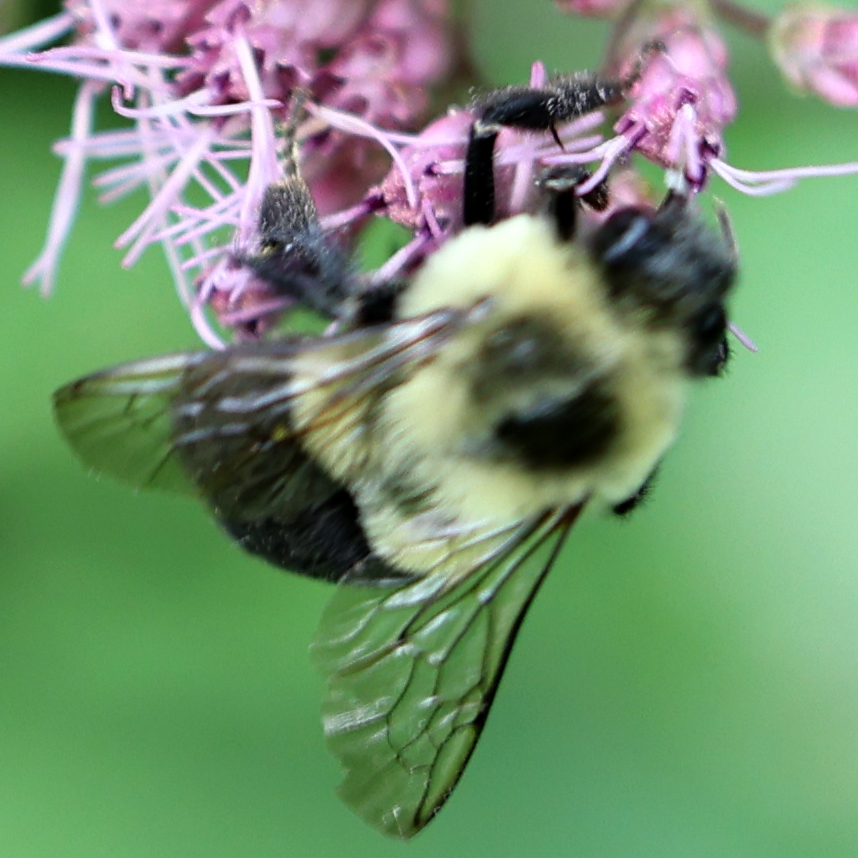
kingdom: Animalia
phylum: Arthropoda
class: Insecta
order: Hymenoptera
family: Apidae
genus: Bombus
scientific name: Bombus impatiens
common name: Common eastern bumble bee
